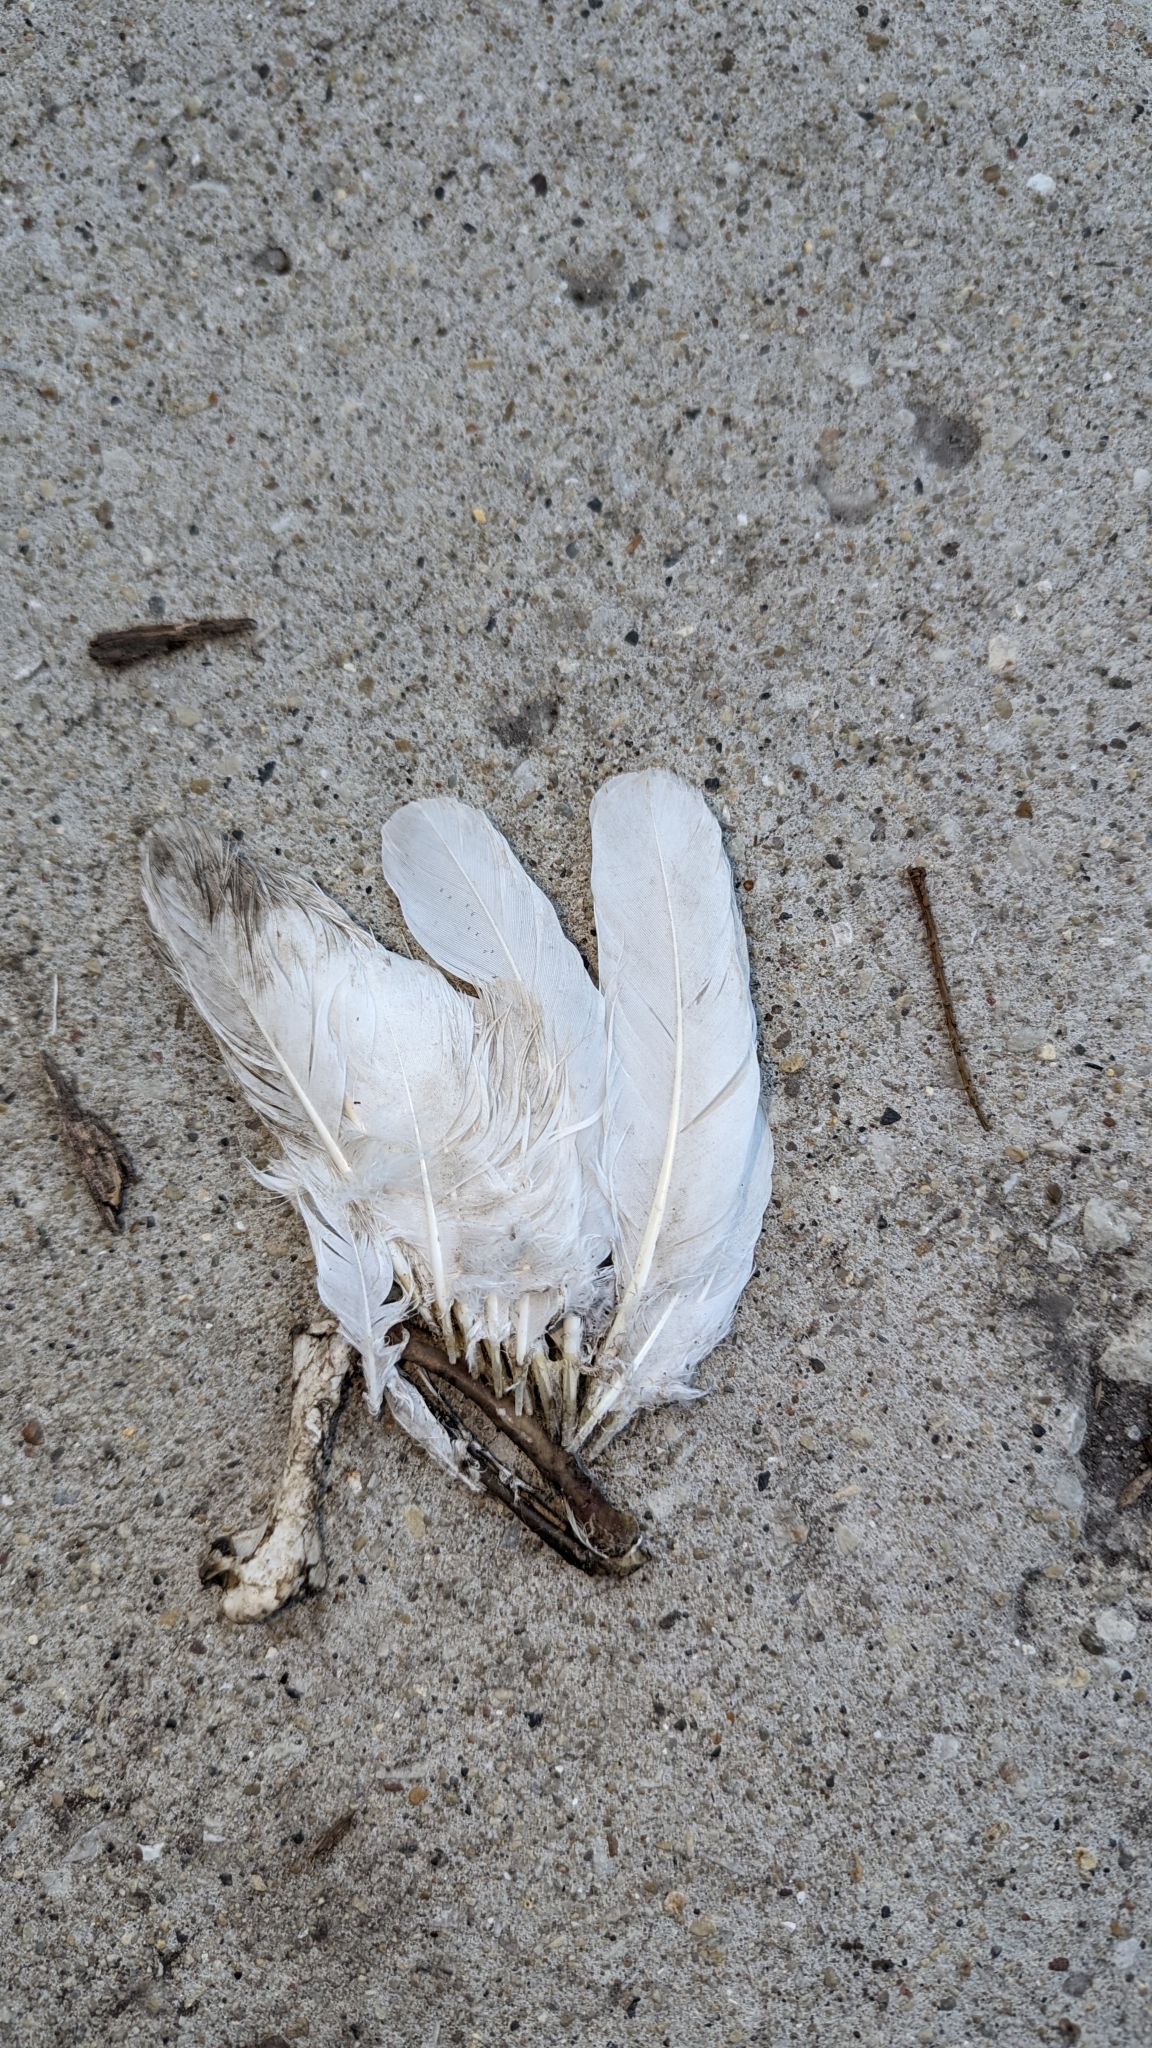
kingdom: Animalia
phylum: Chordata
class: Aves
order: Columbiformes
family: Columbidae
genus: Columba
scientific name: Columba livia
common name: Rock pigeon
